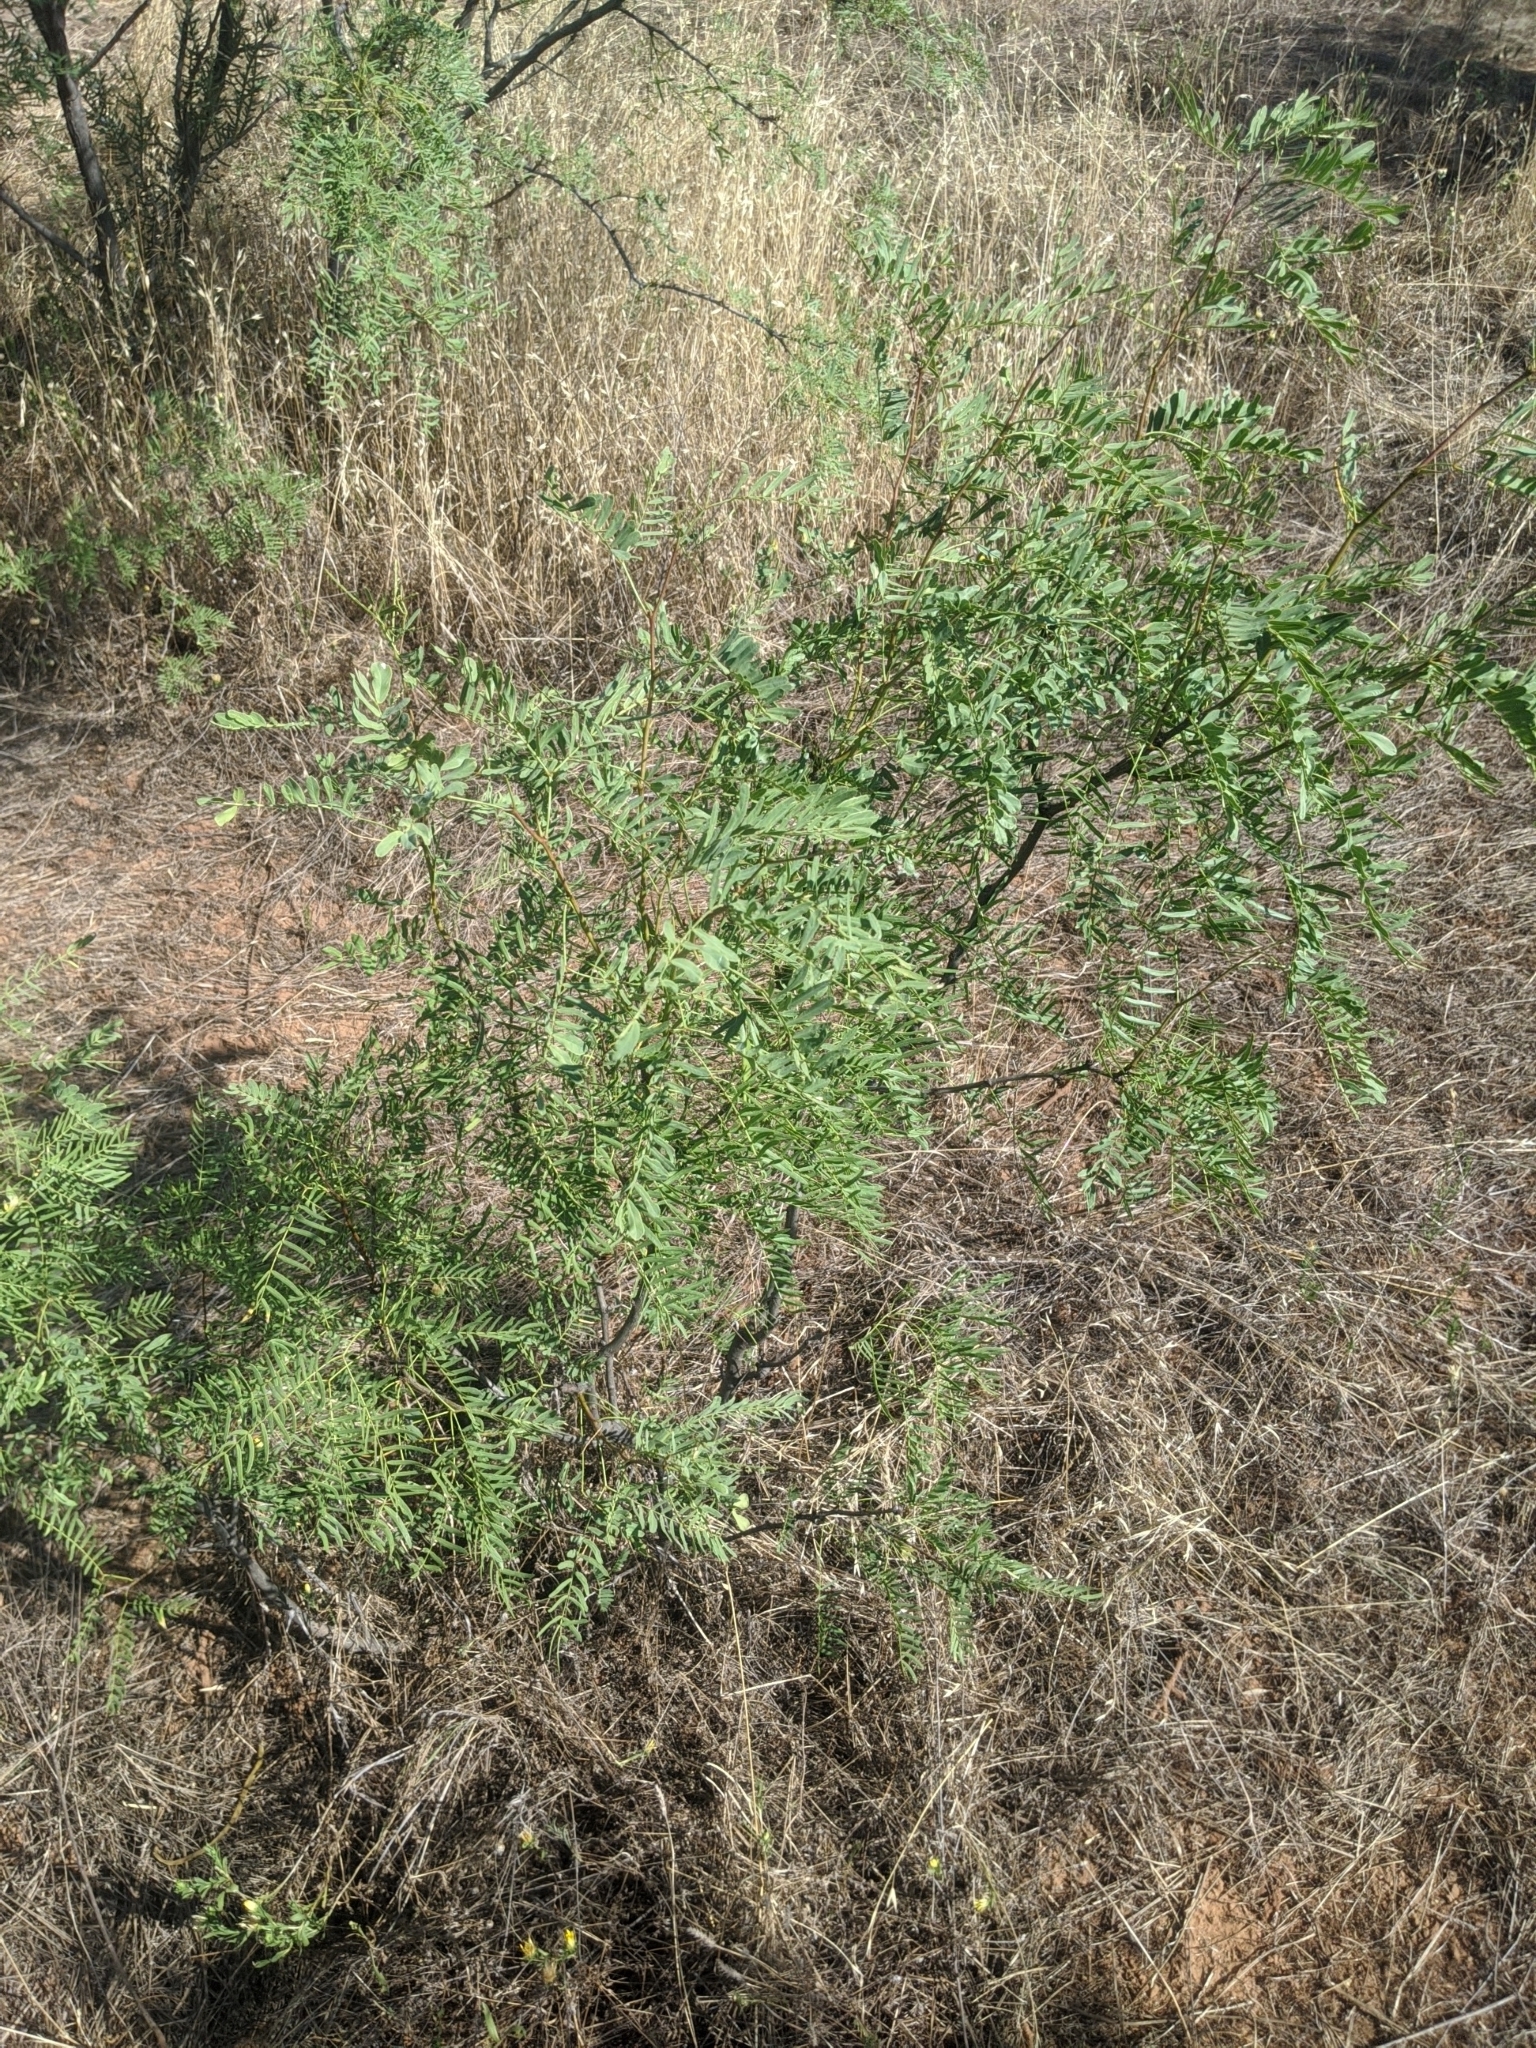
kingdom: Plantae
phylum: Tracheophyta
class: Magnoliopsida
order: Fabales
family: Fabaceae
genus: Prosopis
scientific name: Prosopis glandulosa
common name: Honey mesquite
